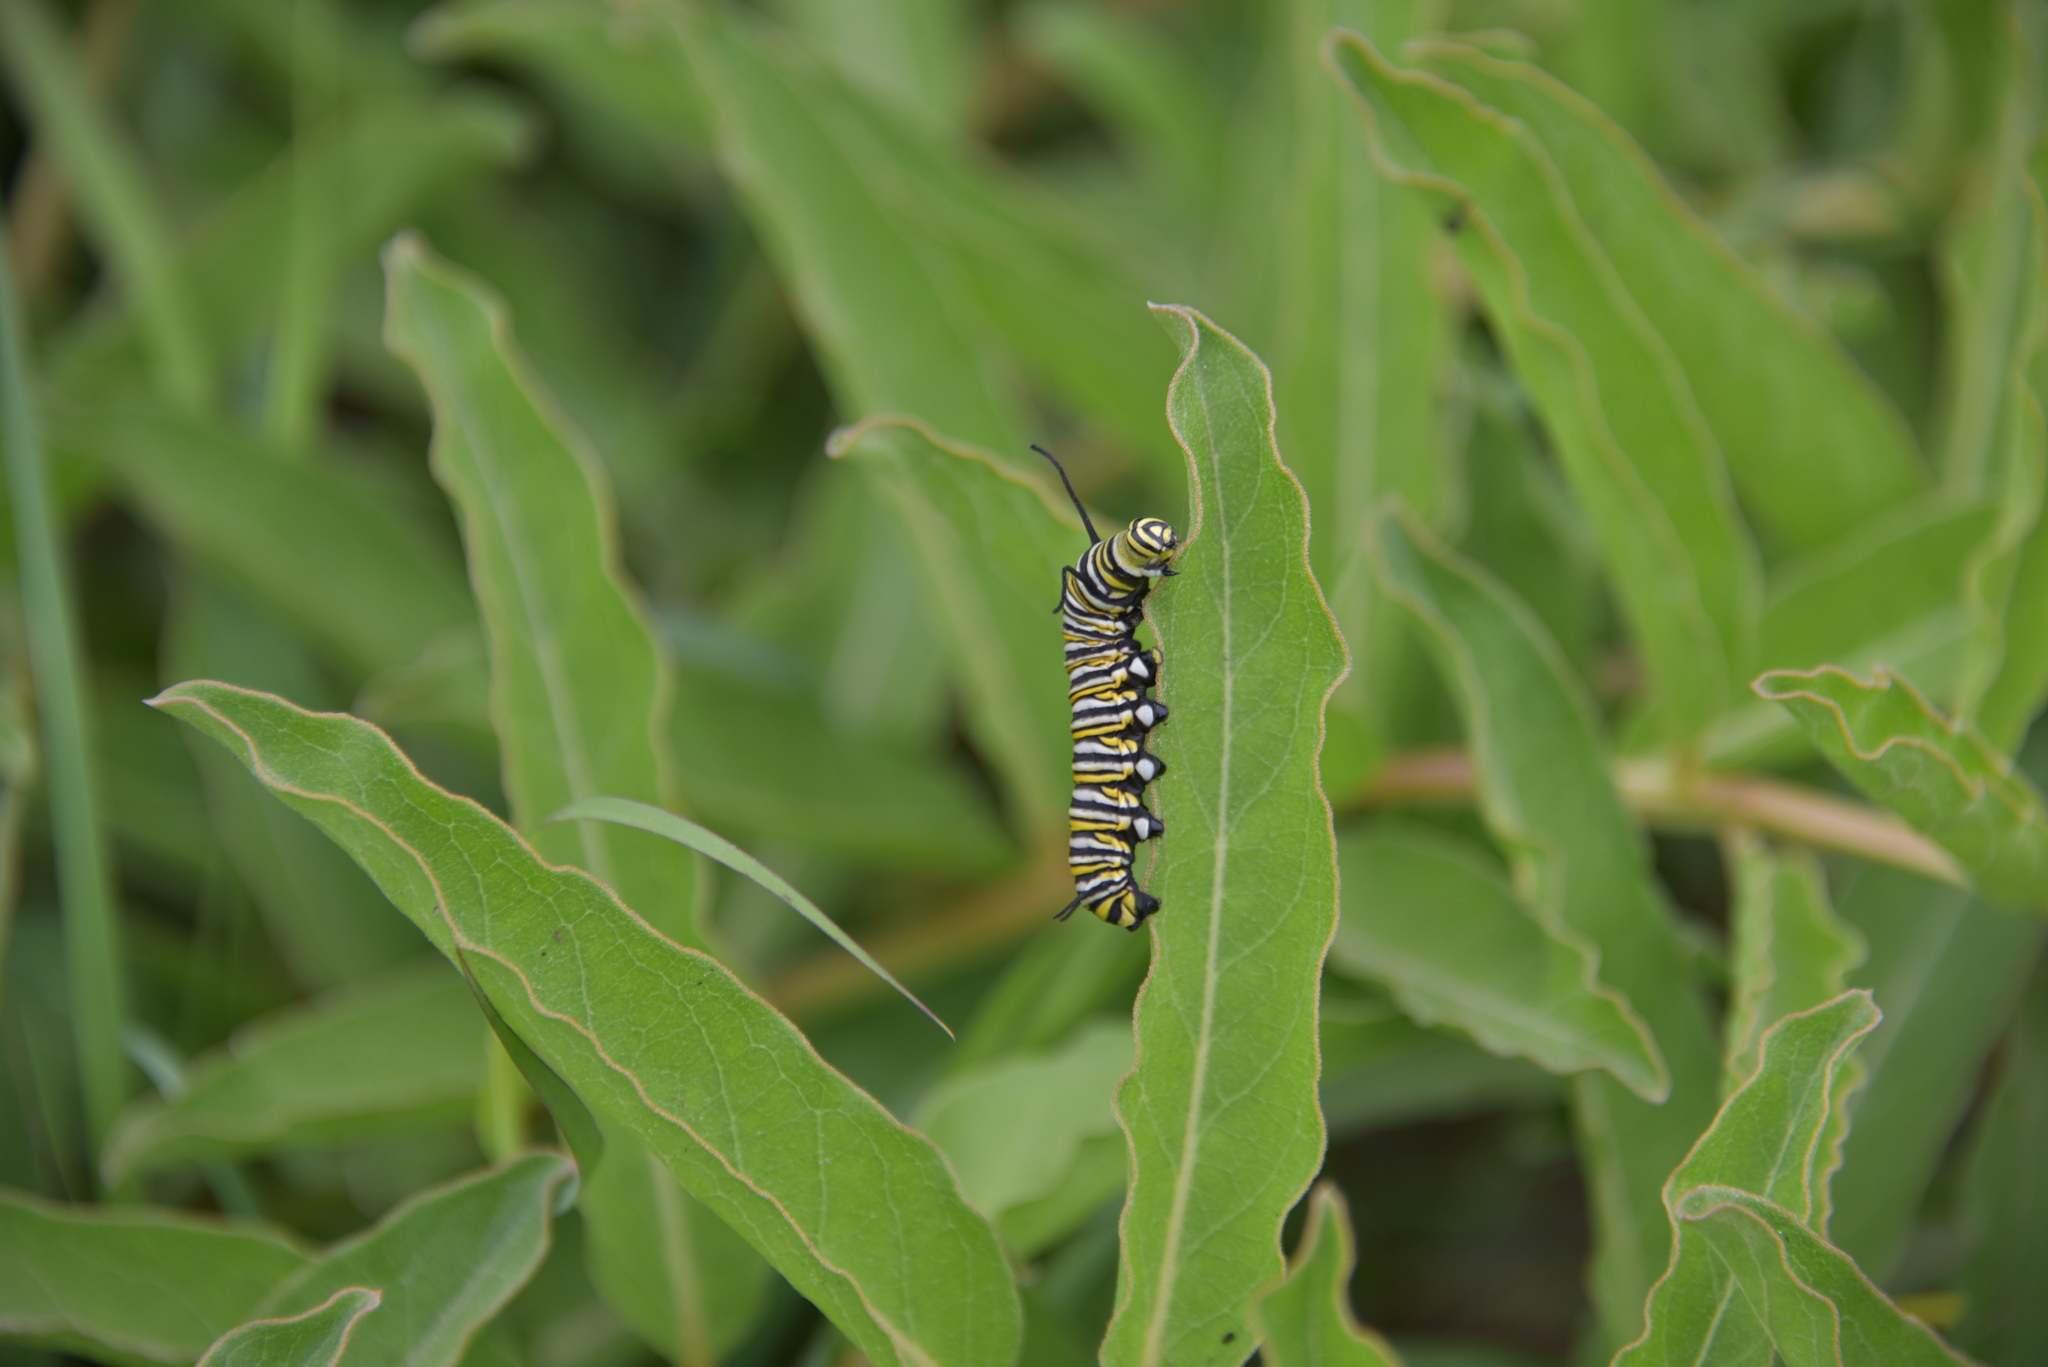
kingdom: Animalia
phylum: Arthropoda
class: Insecta
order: Lepidoptera
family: Nymphalidae
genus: Danaus
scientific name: Danaus plexippus
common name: Monarch
